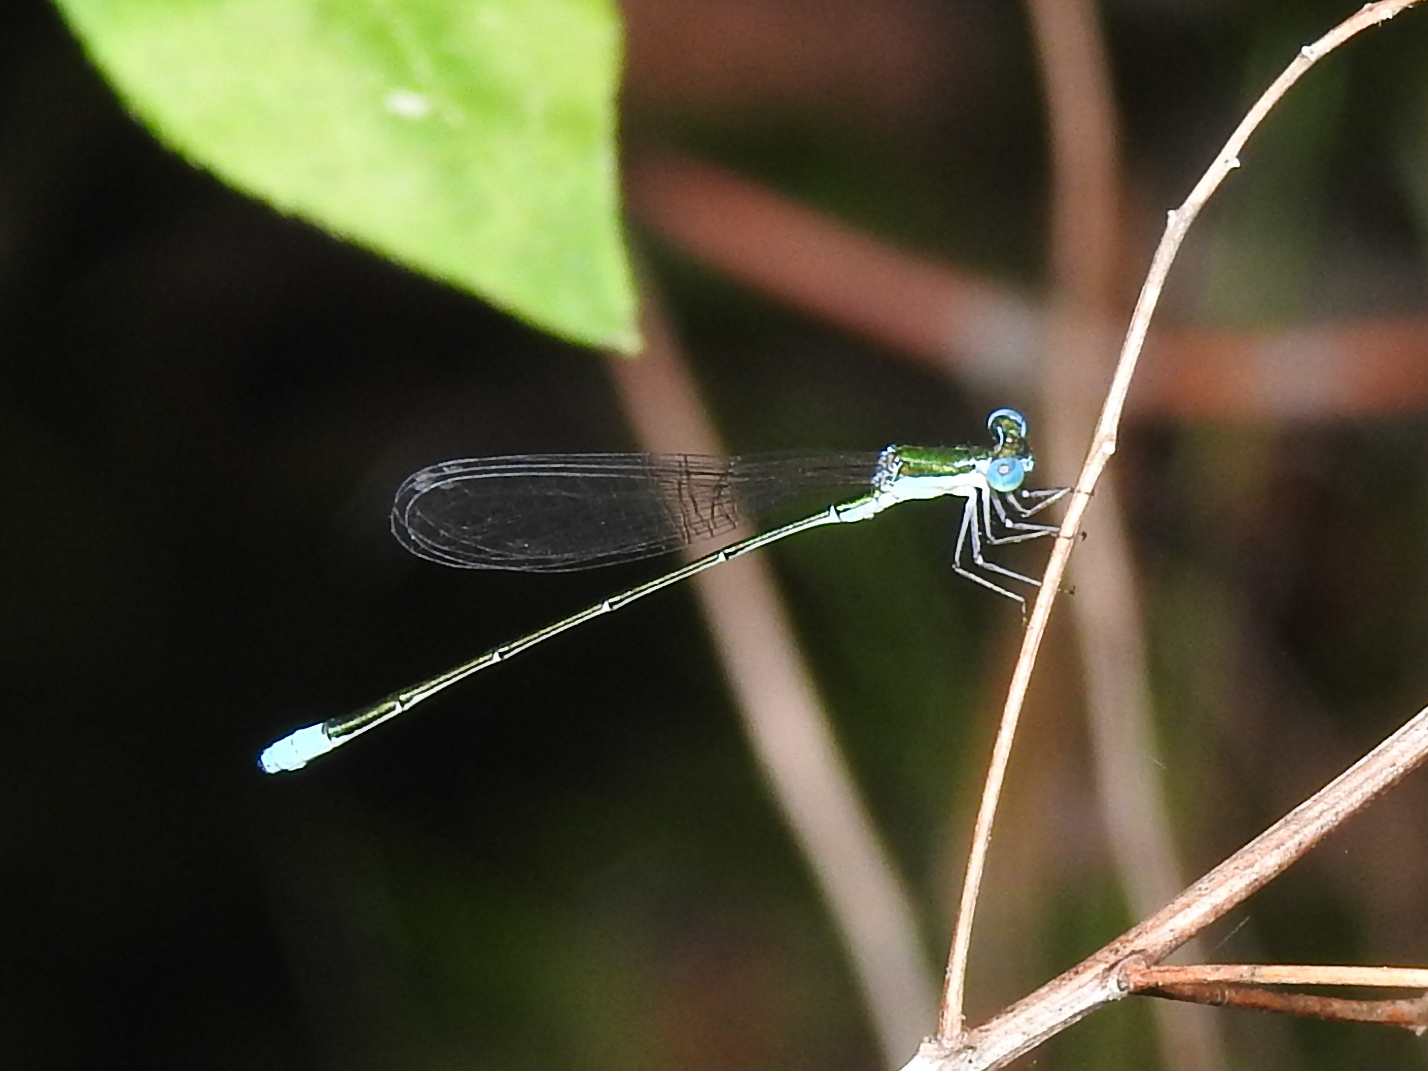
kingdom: Animalia
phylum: Arthropoda
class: Insecta
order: Odonata
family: Coenagrionidae
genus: Nehalennia
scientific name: Nehalennia gracilis
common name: Sphagnum sprite
